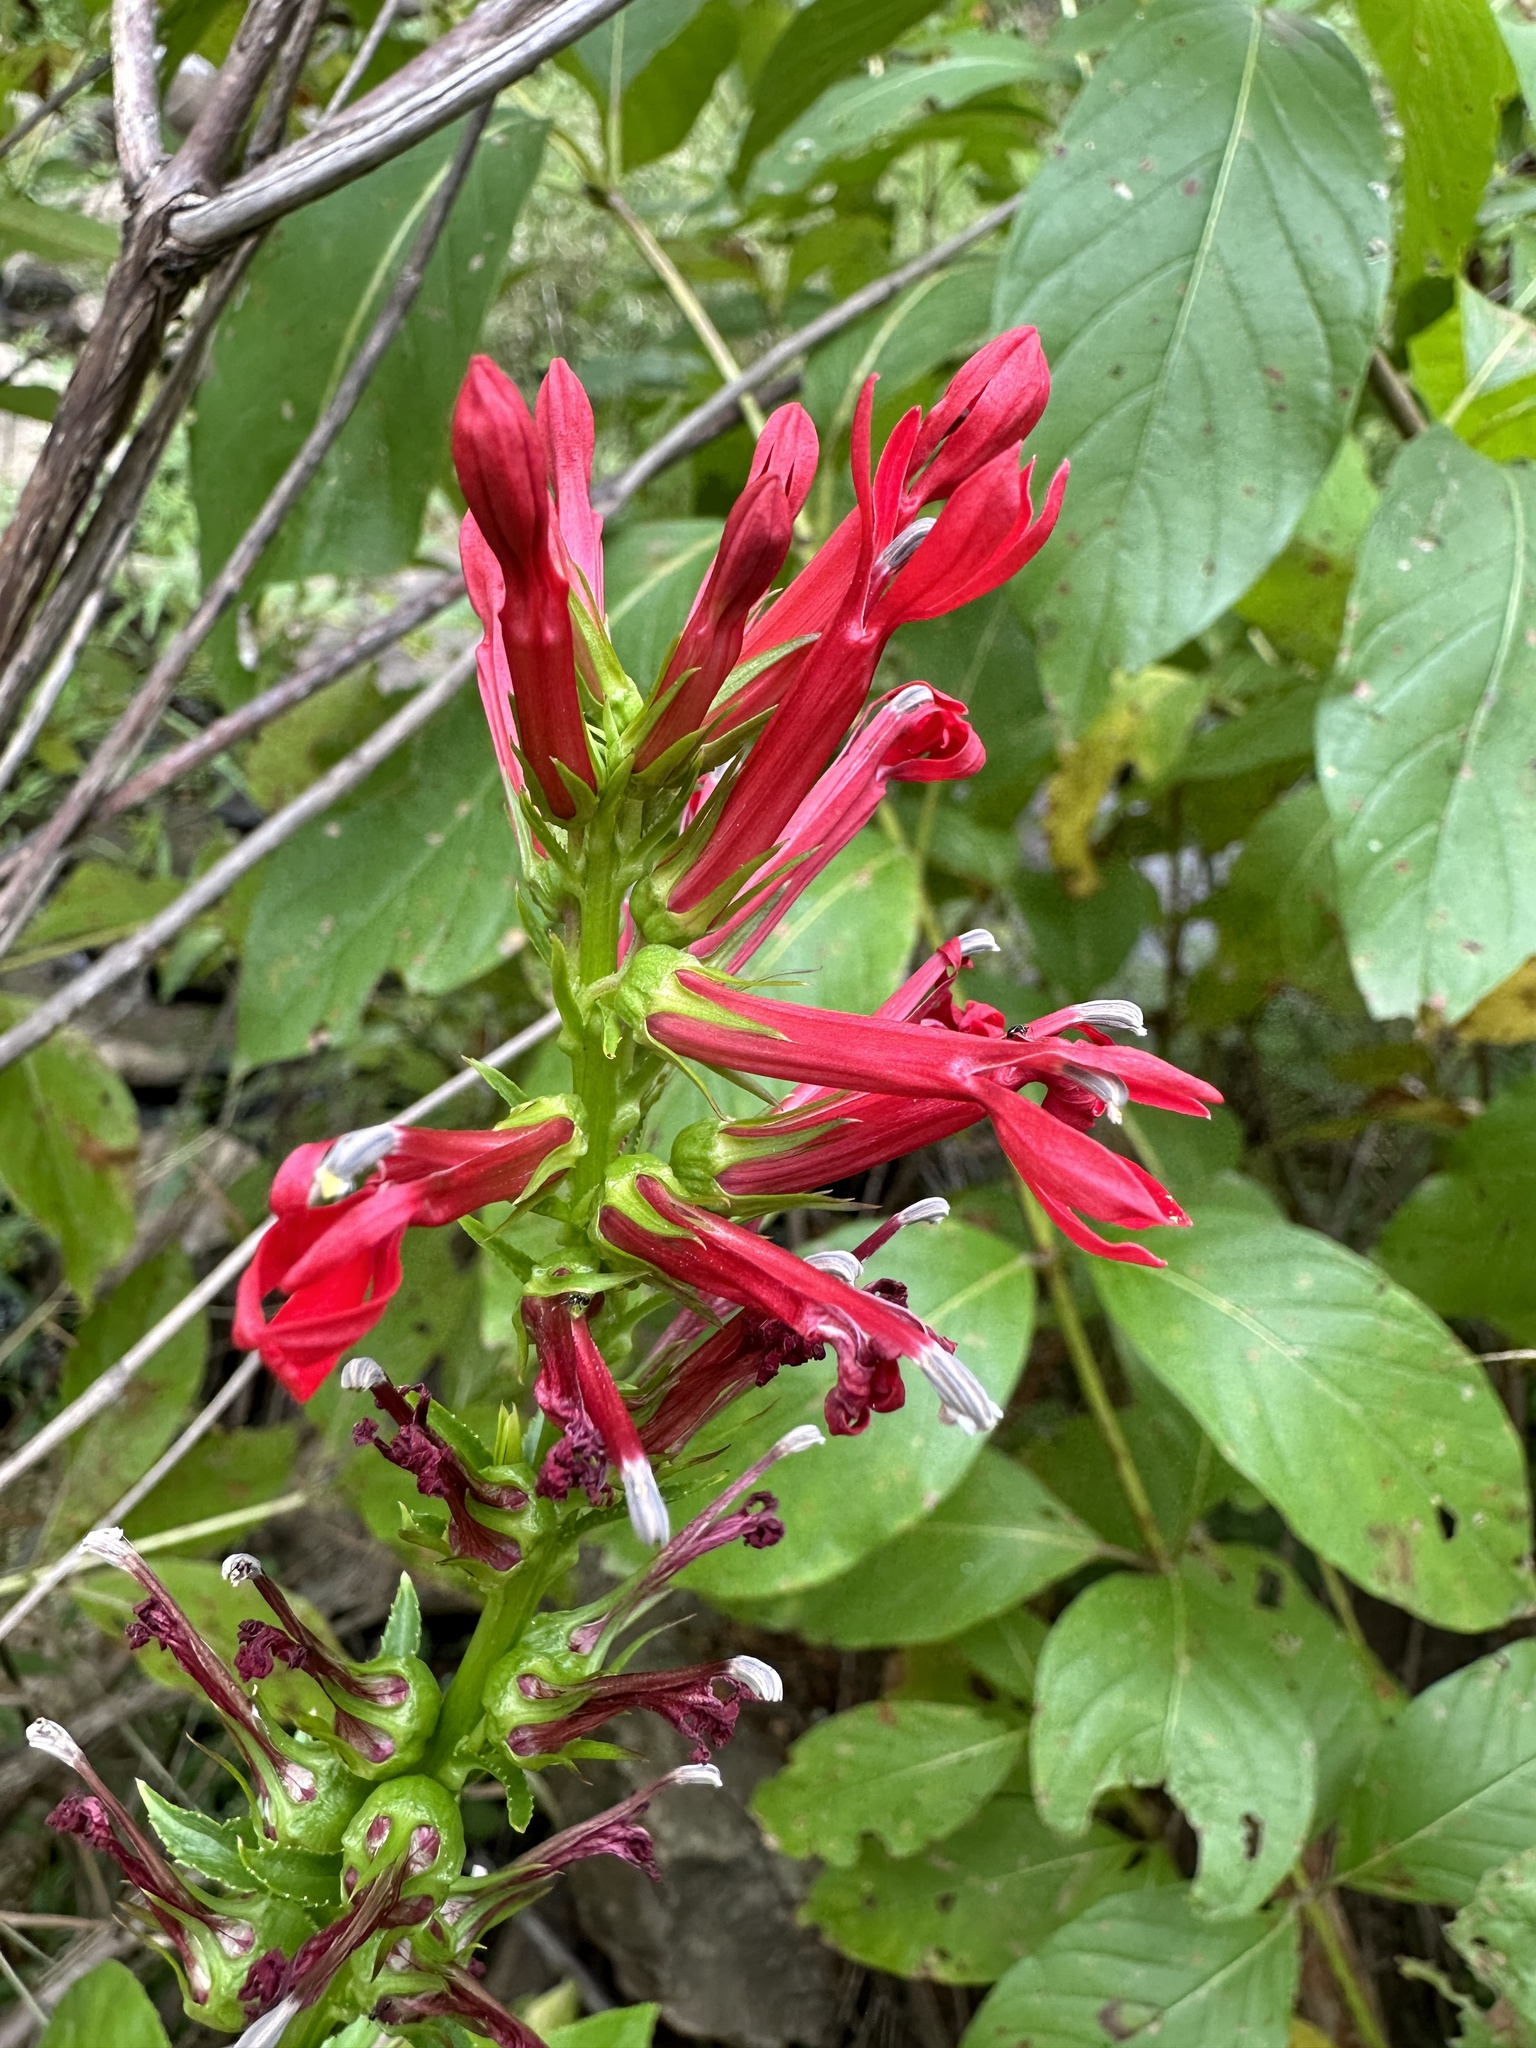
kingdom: Plantae
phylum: Tracheophyta
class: Magnoliopsida
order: Asterales
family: Campanulaceae
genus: Lobelia
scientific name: Lobelia cardinalis
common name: Cardinal flower
